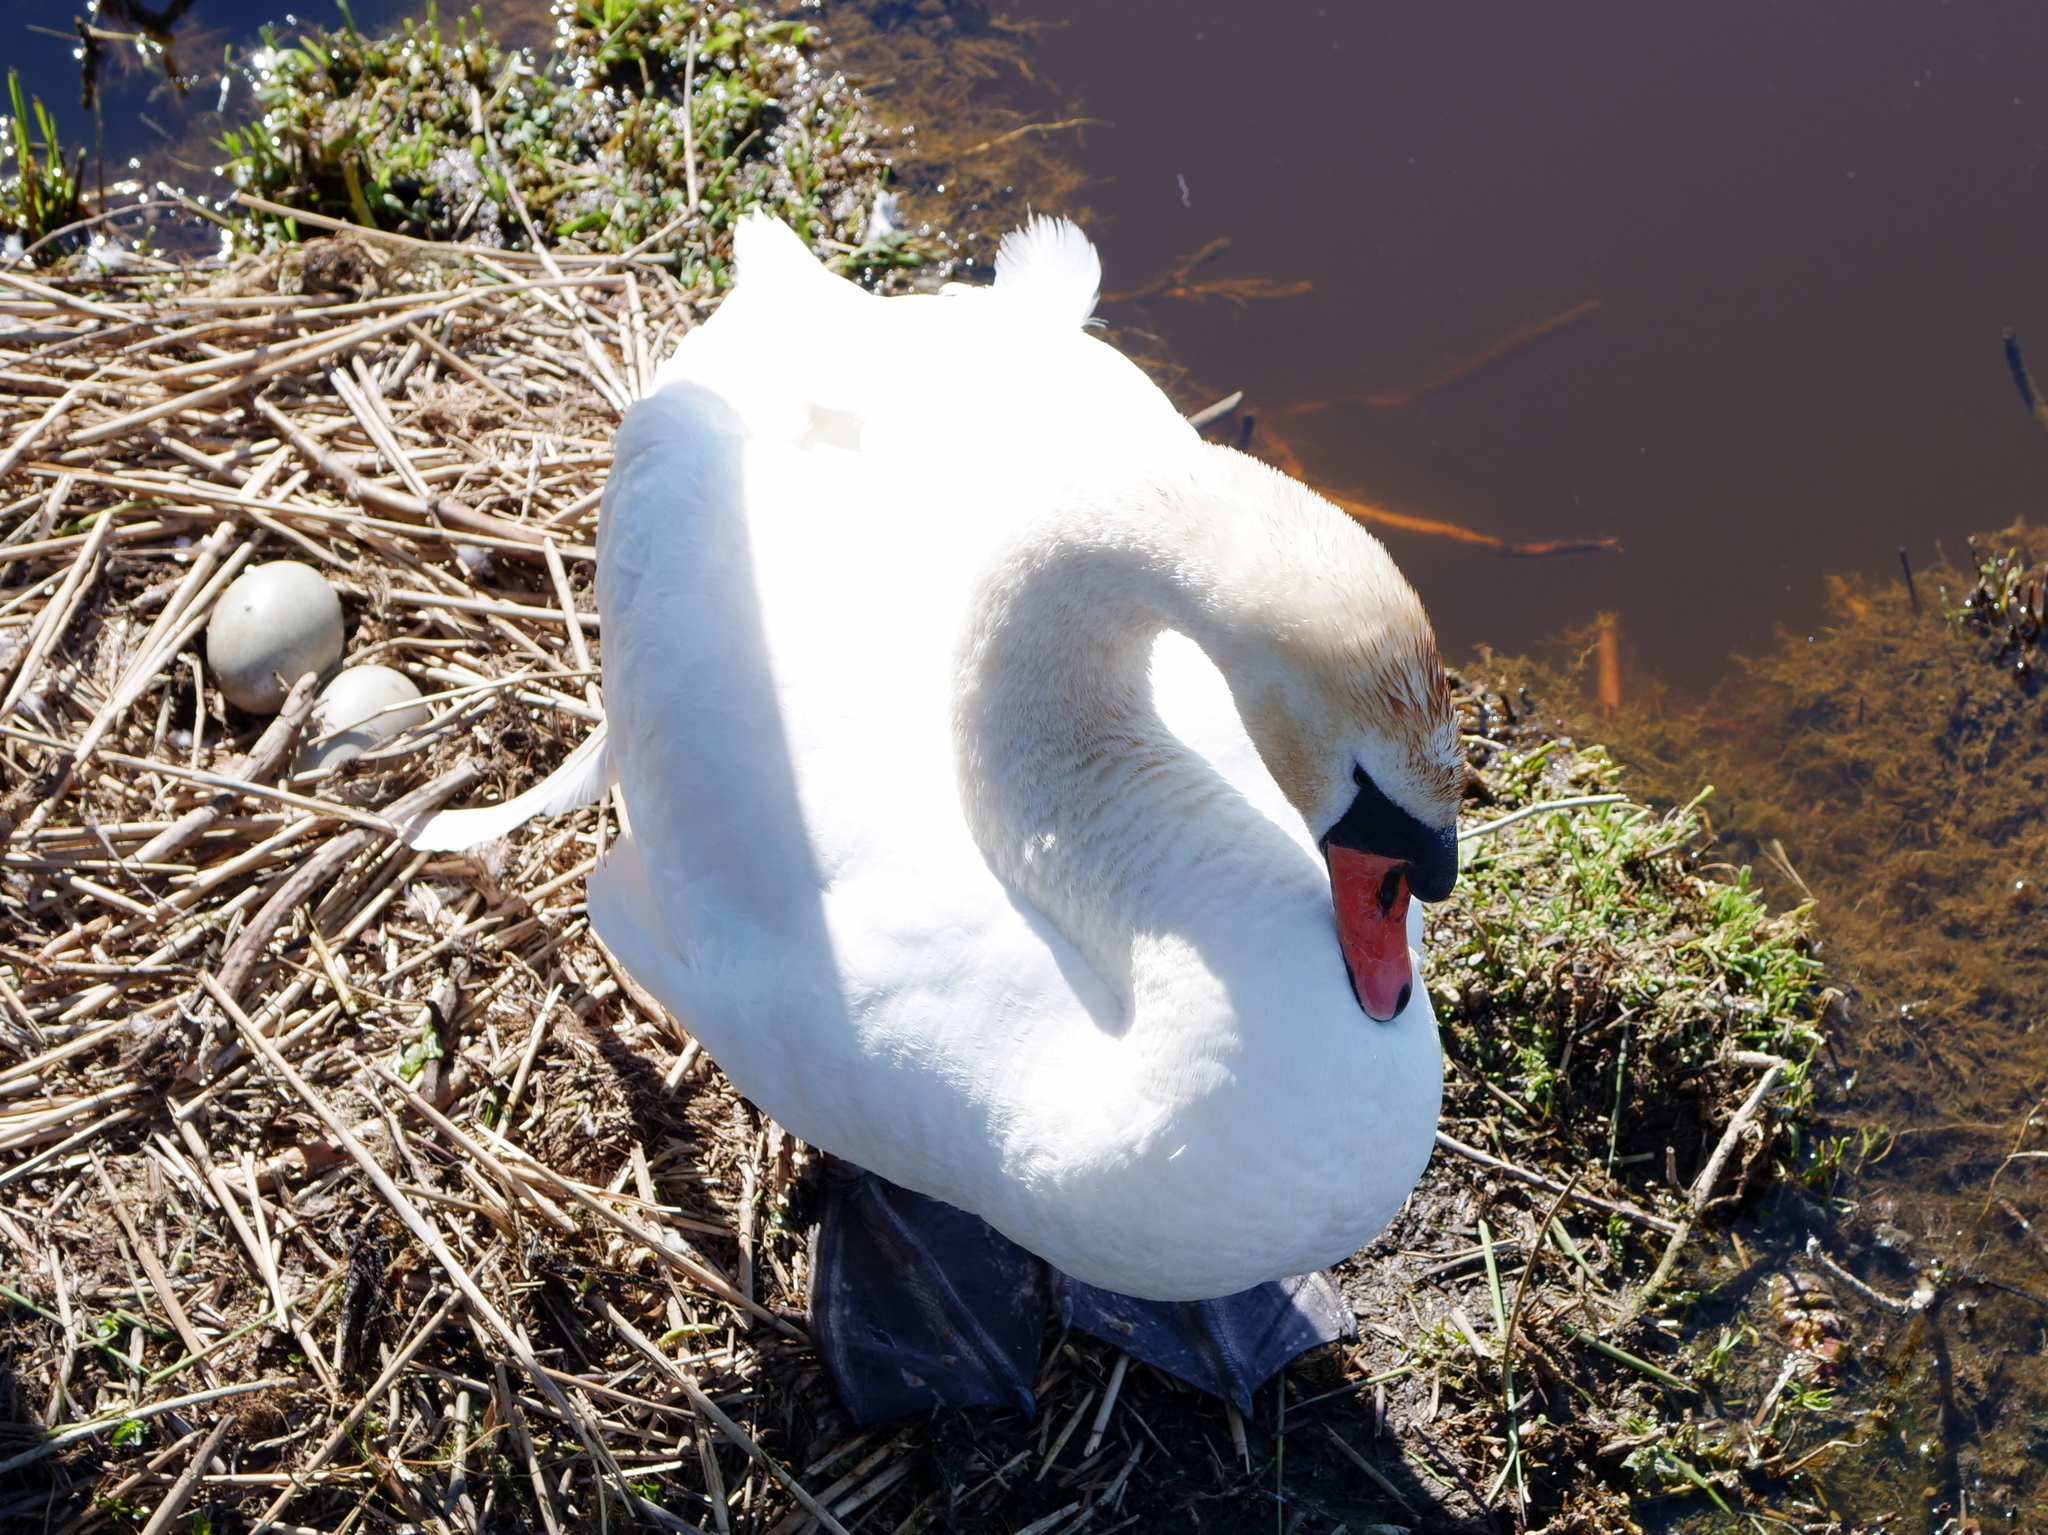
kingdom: Animalia
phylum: Chordata
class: Aves
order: Anseriformes
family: Anatidae
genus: Cygnus
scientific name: Cygnus olor
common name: Mute swan
